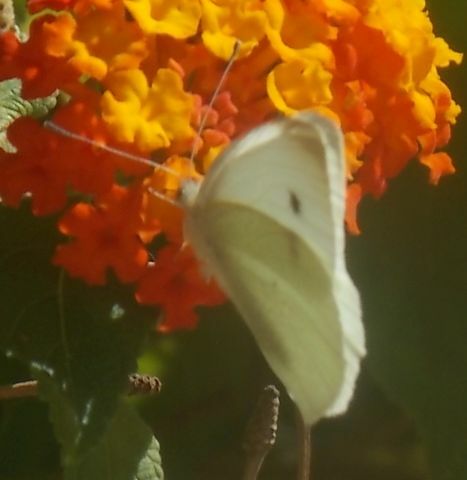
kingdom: Animalia
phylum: Arthropoda
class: Insecta
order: Lepidoptera
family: Pieridae
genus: Pieris
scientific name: Pieris rapae
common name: Small white
